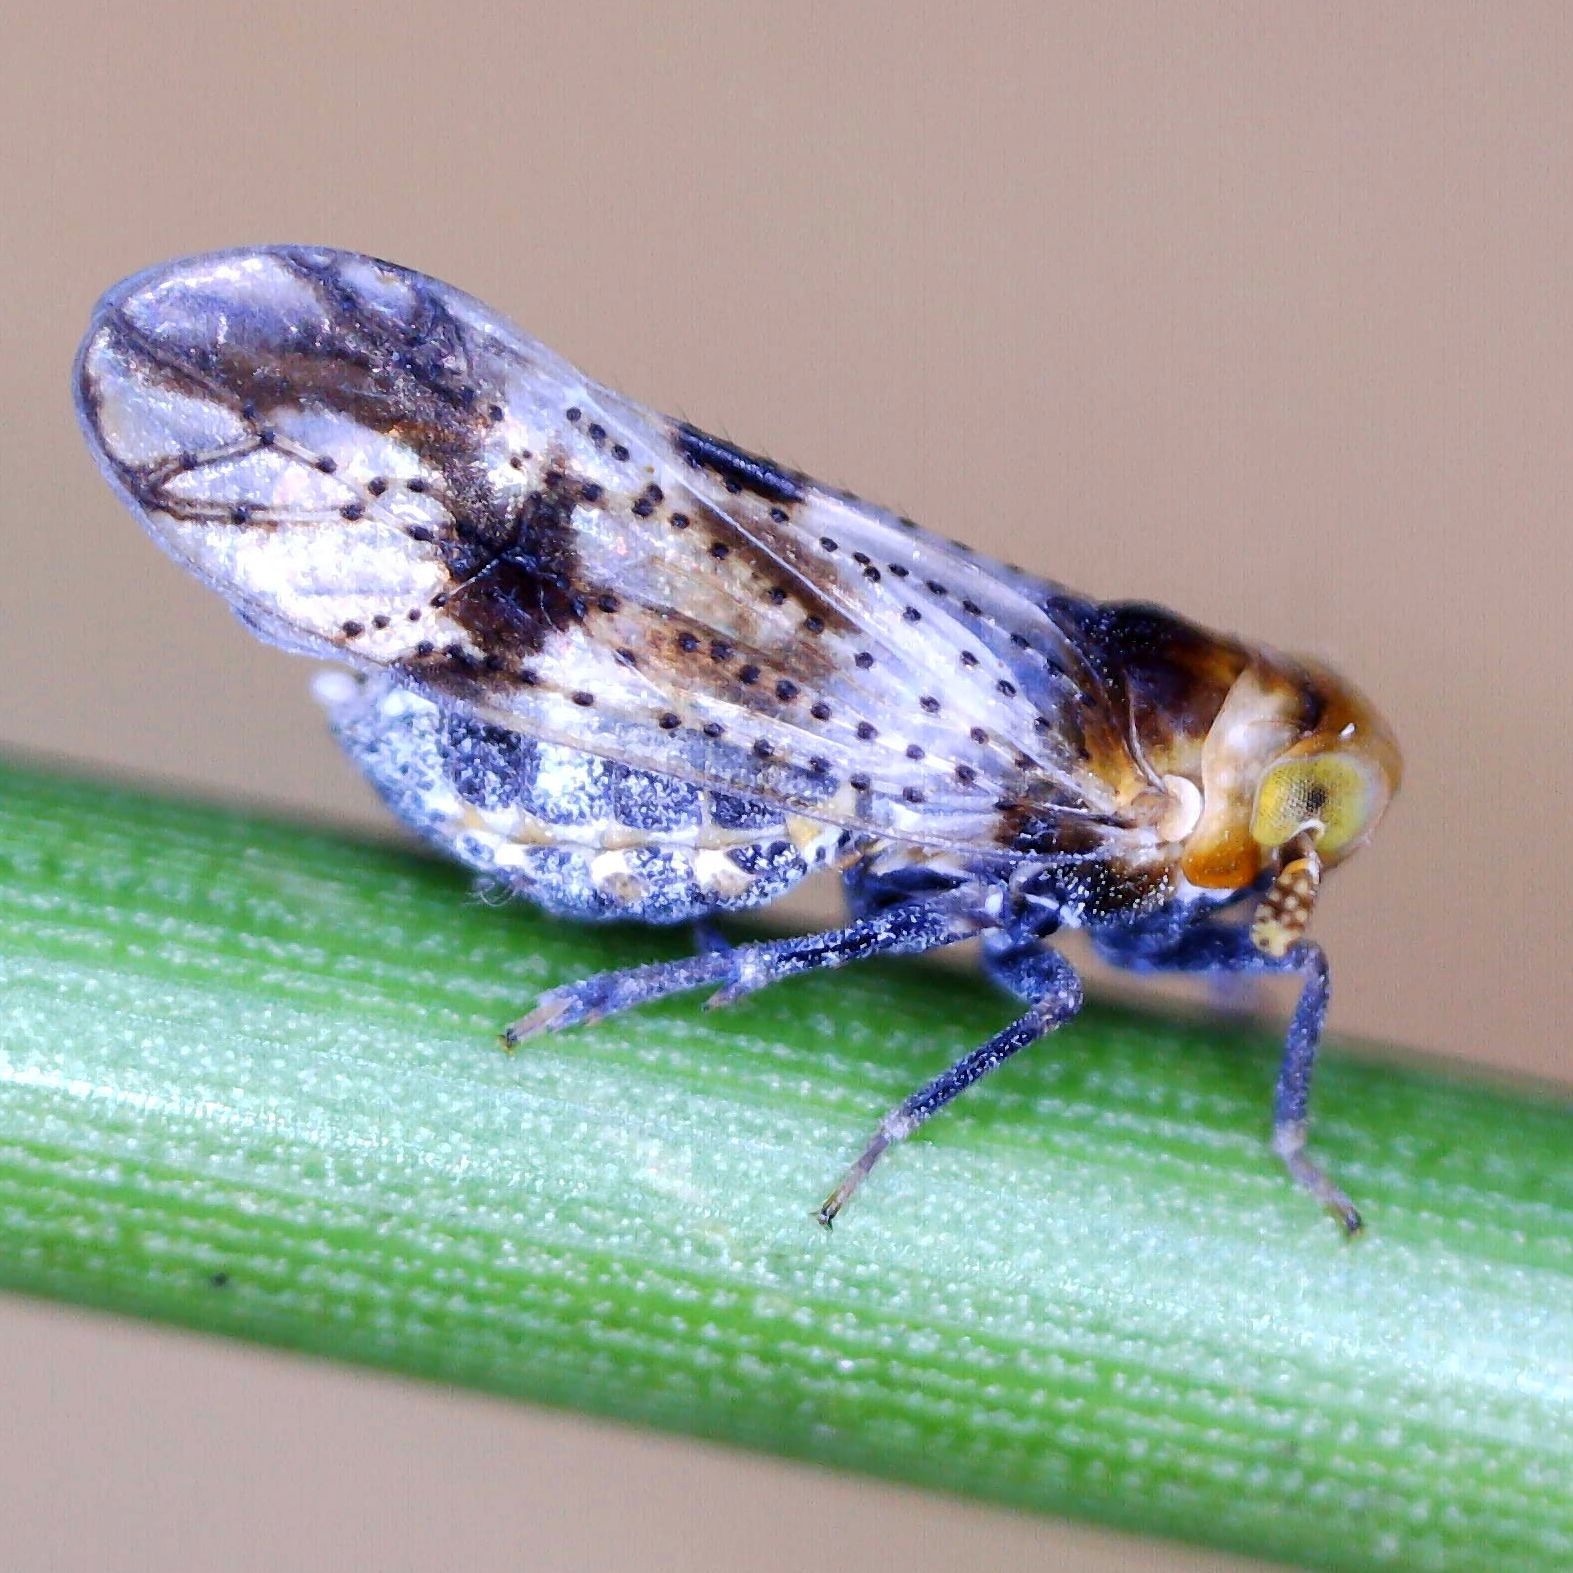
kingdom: Animalia
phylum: Arthropoda
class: Insecta
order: Hemiptera
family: Delphacidae
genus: Conomelus
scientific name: Conomelus anceps
